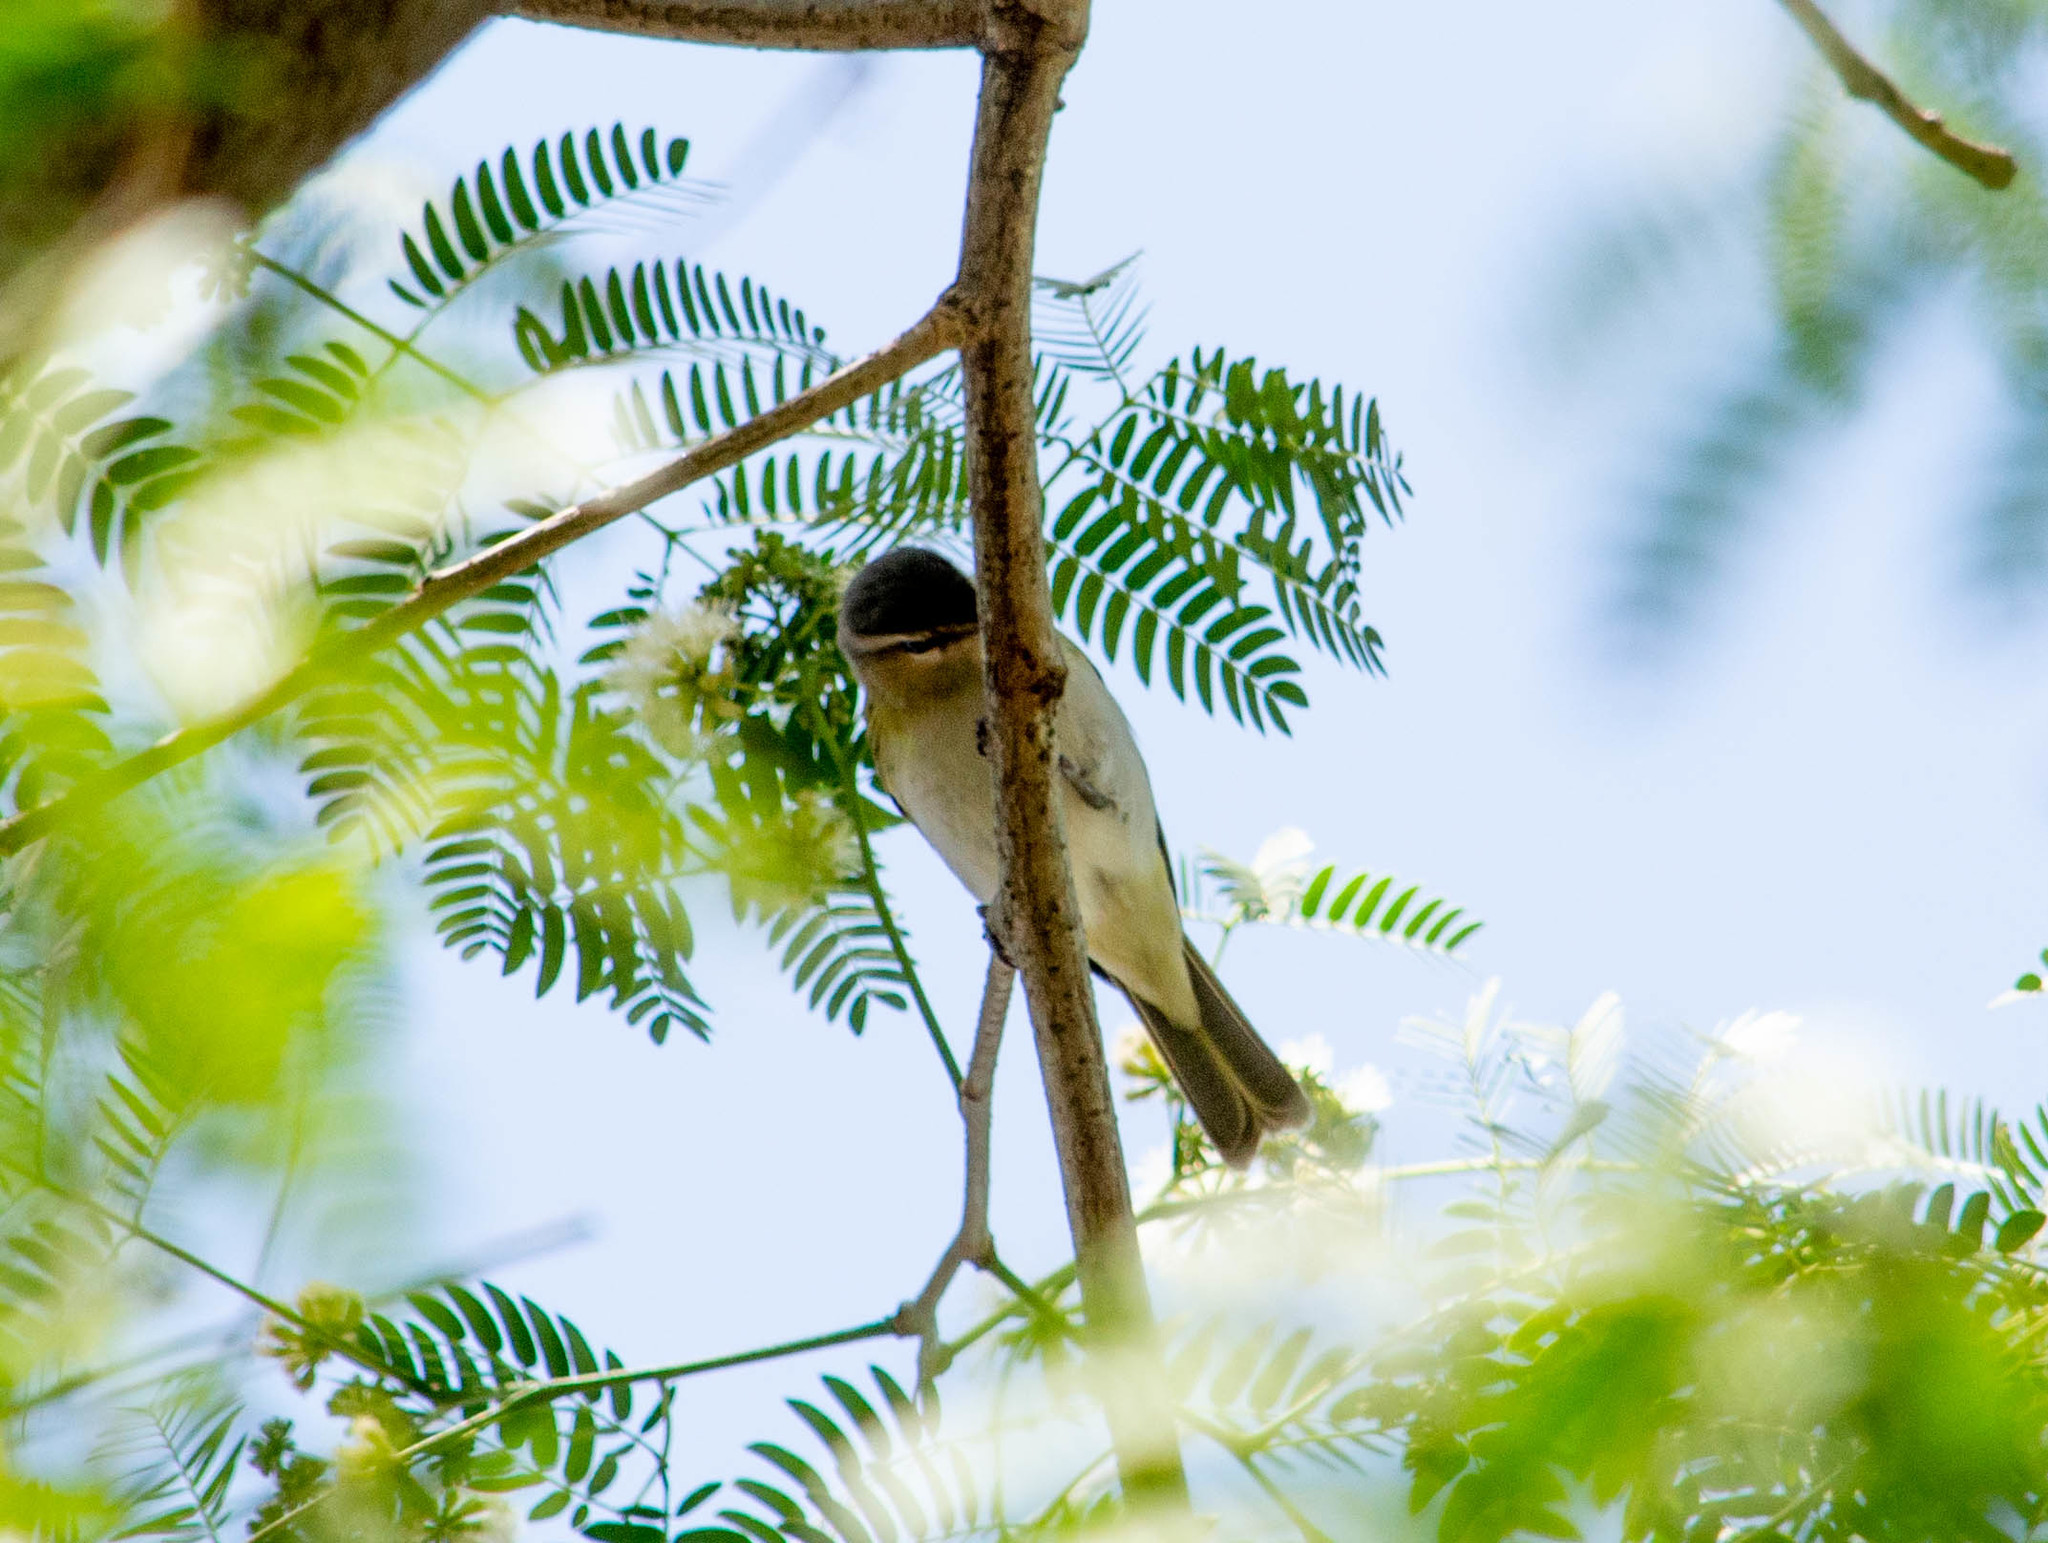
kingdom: Animalia
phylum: Chordata
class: Aves
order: Passeriformes
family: Vireonidae
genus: Vireo
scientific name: Vireo olivaceus
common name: Red-eyed vireo
